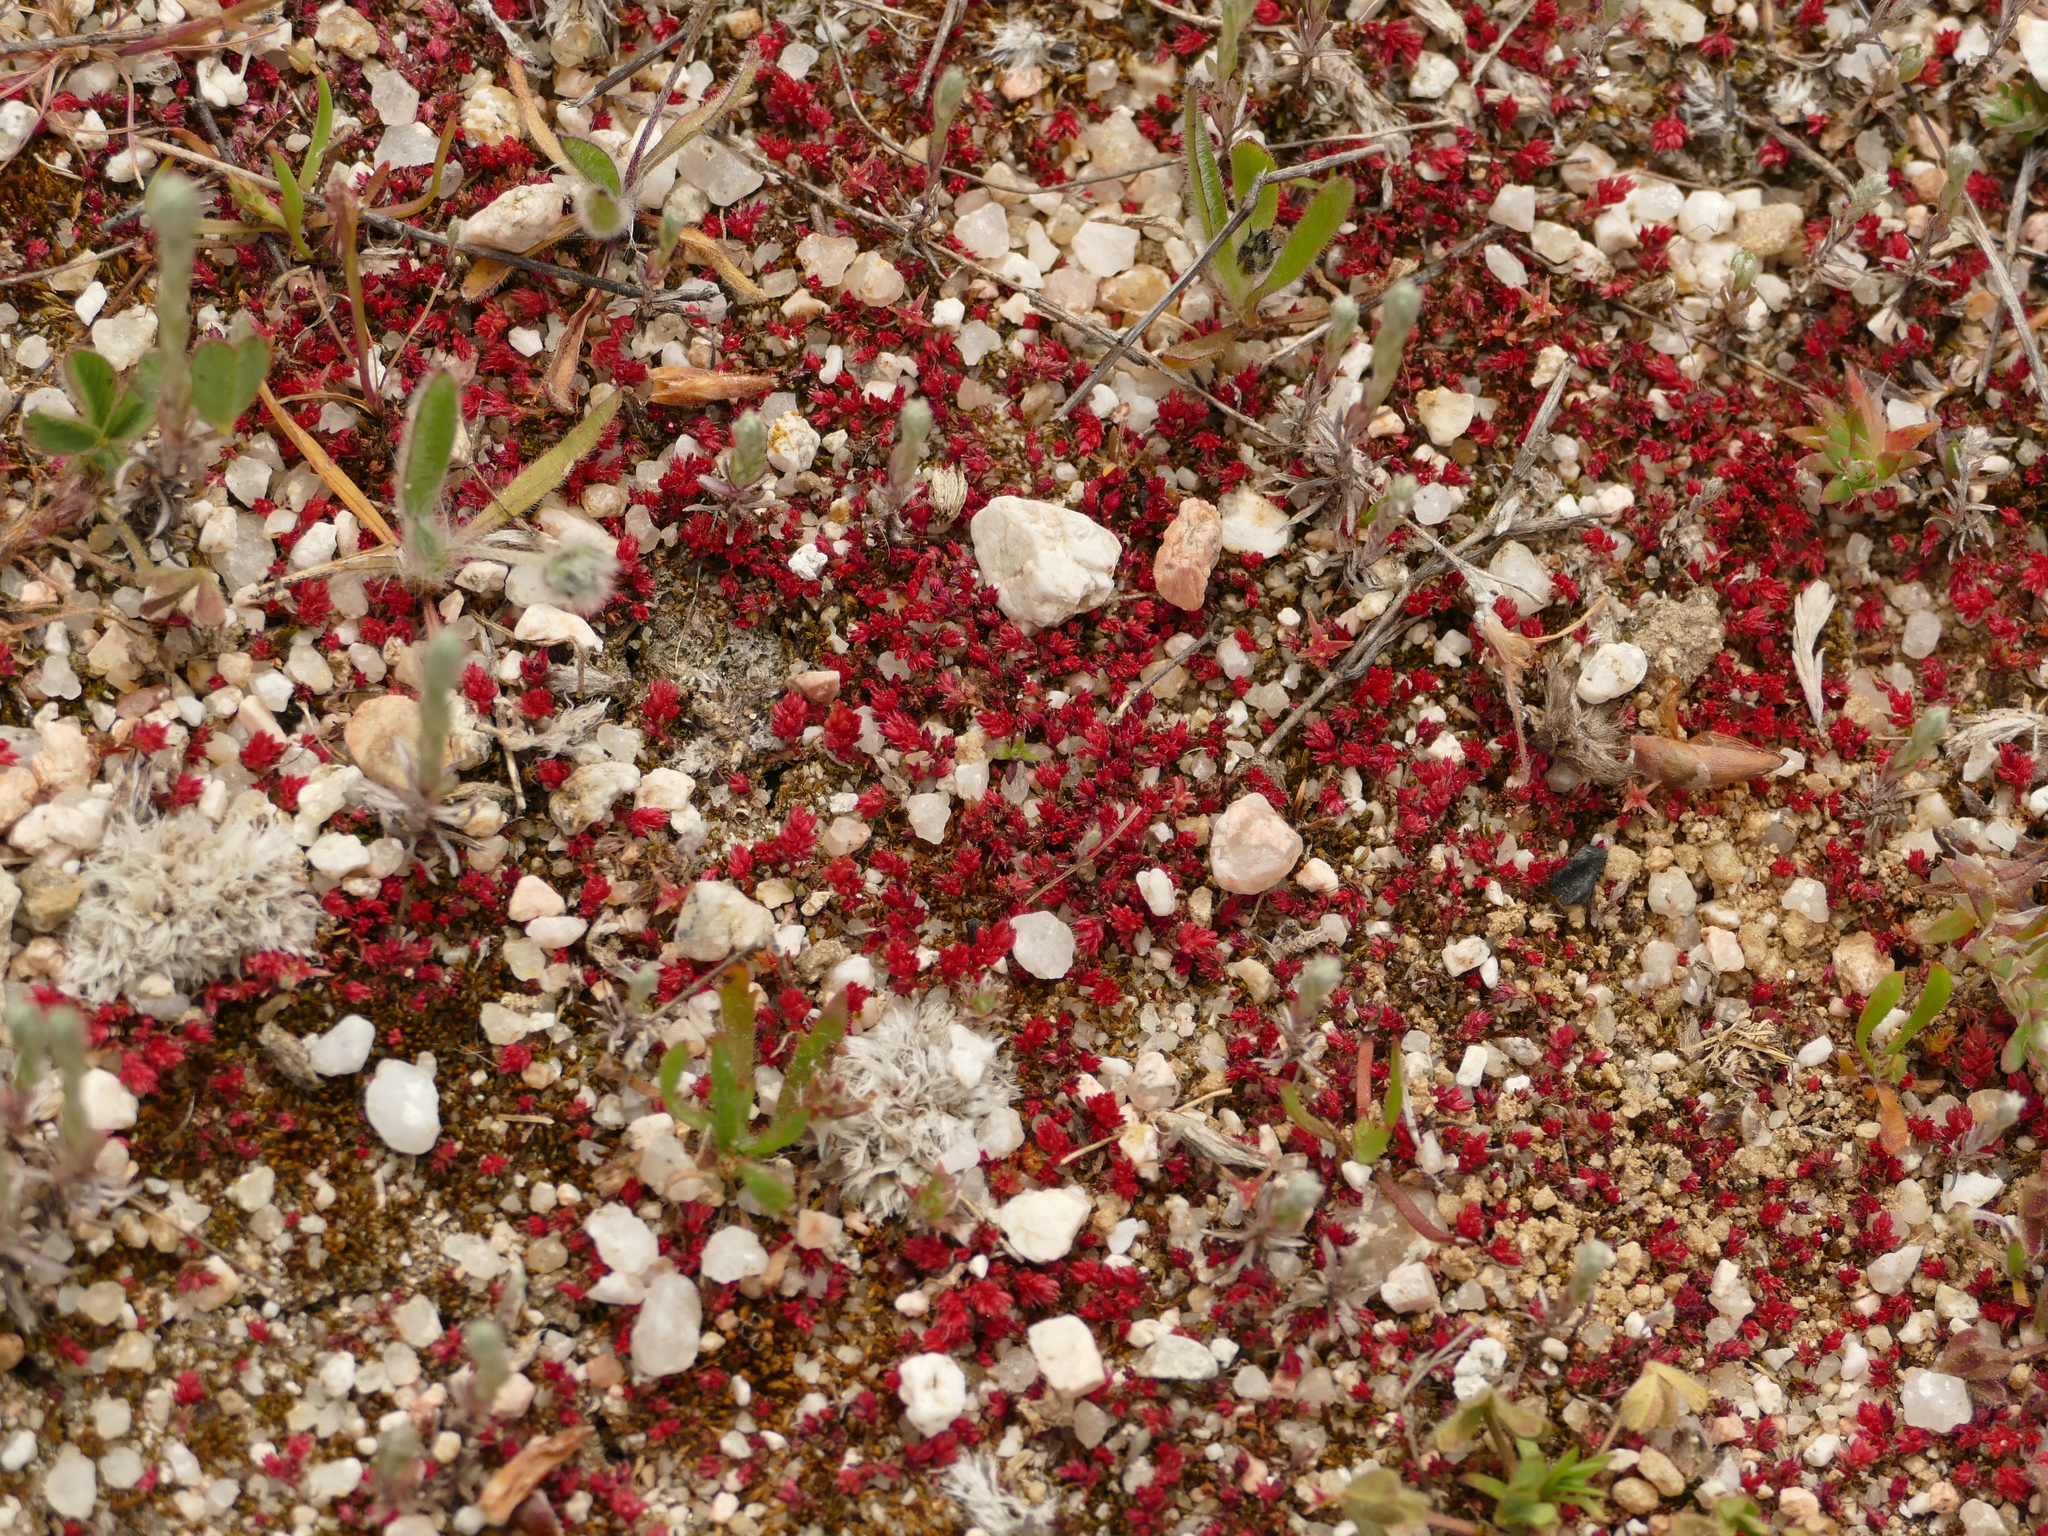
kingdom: Plantae
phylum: Tracheophyta
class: Magnoliopsida
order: Saxifragales
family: Crassulaceae
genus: Crassula
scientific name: Crassula tillaea
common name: Mossy stonecrop
